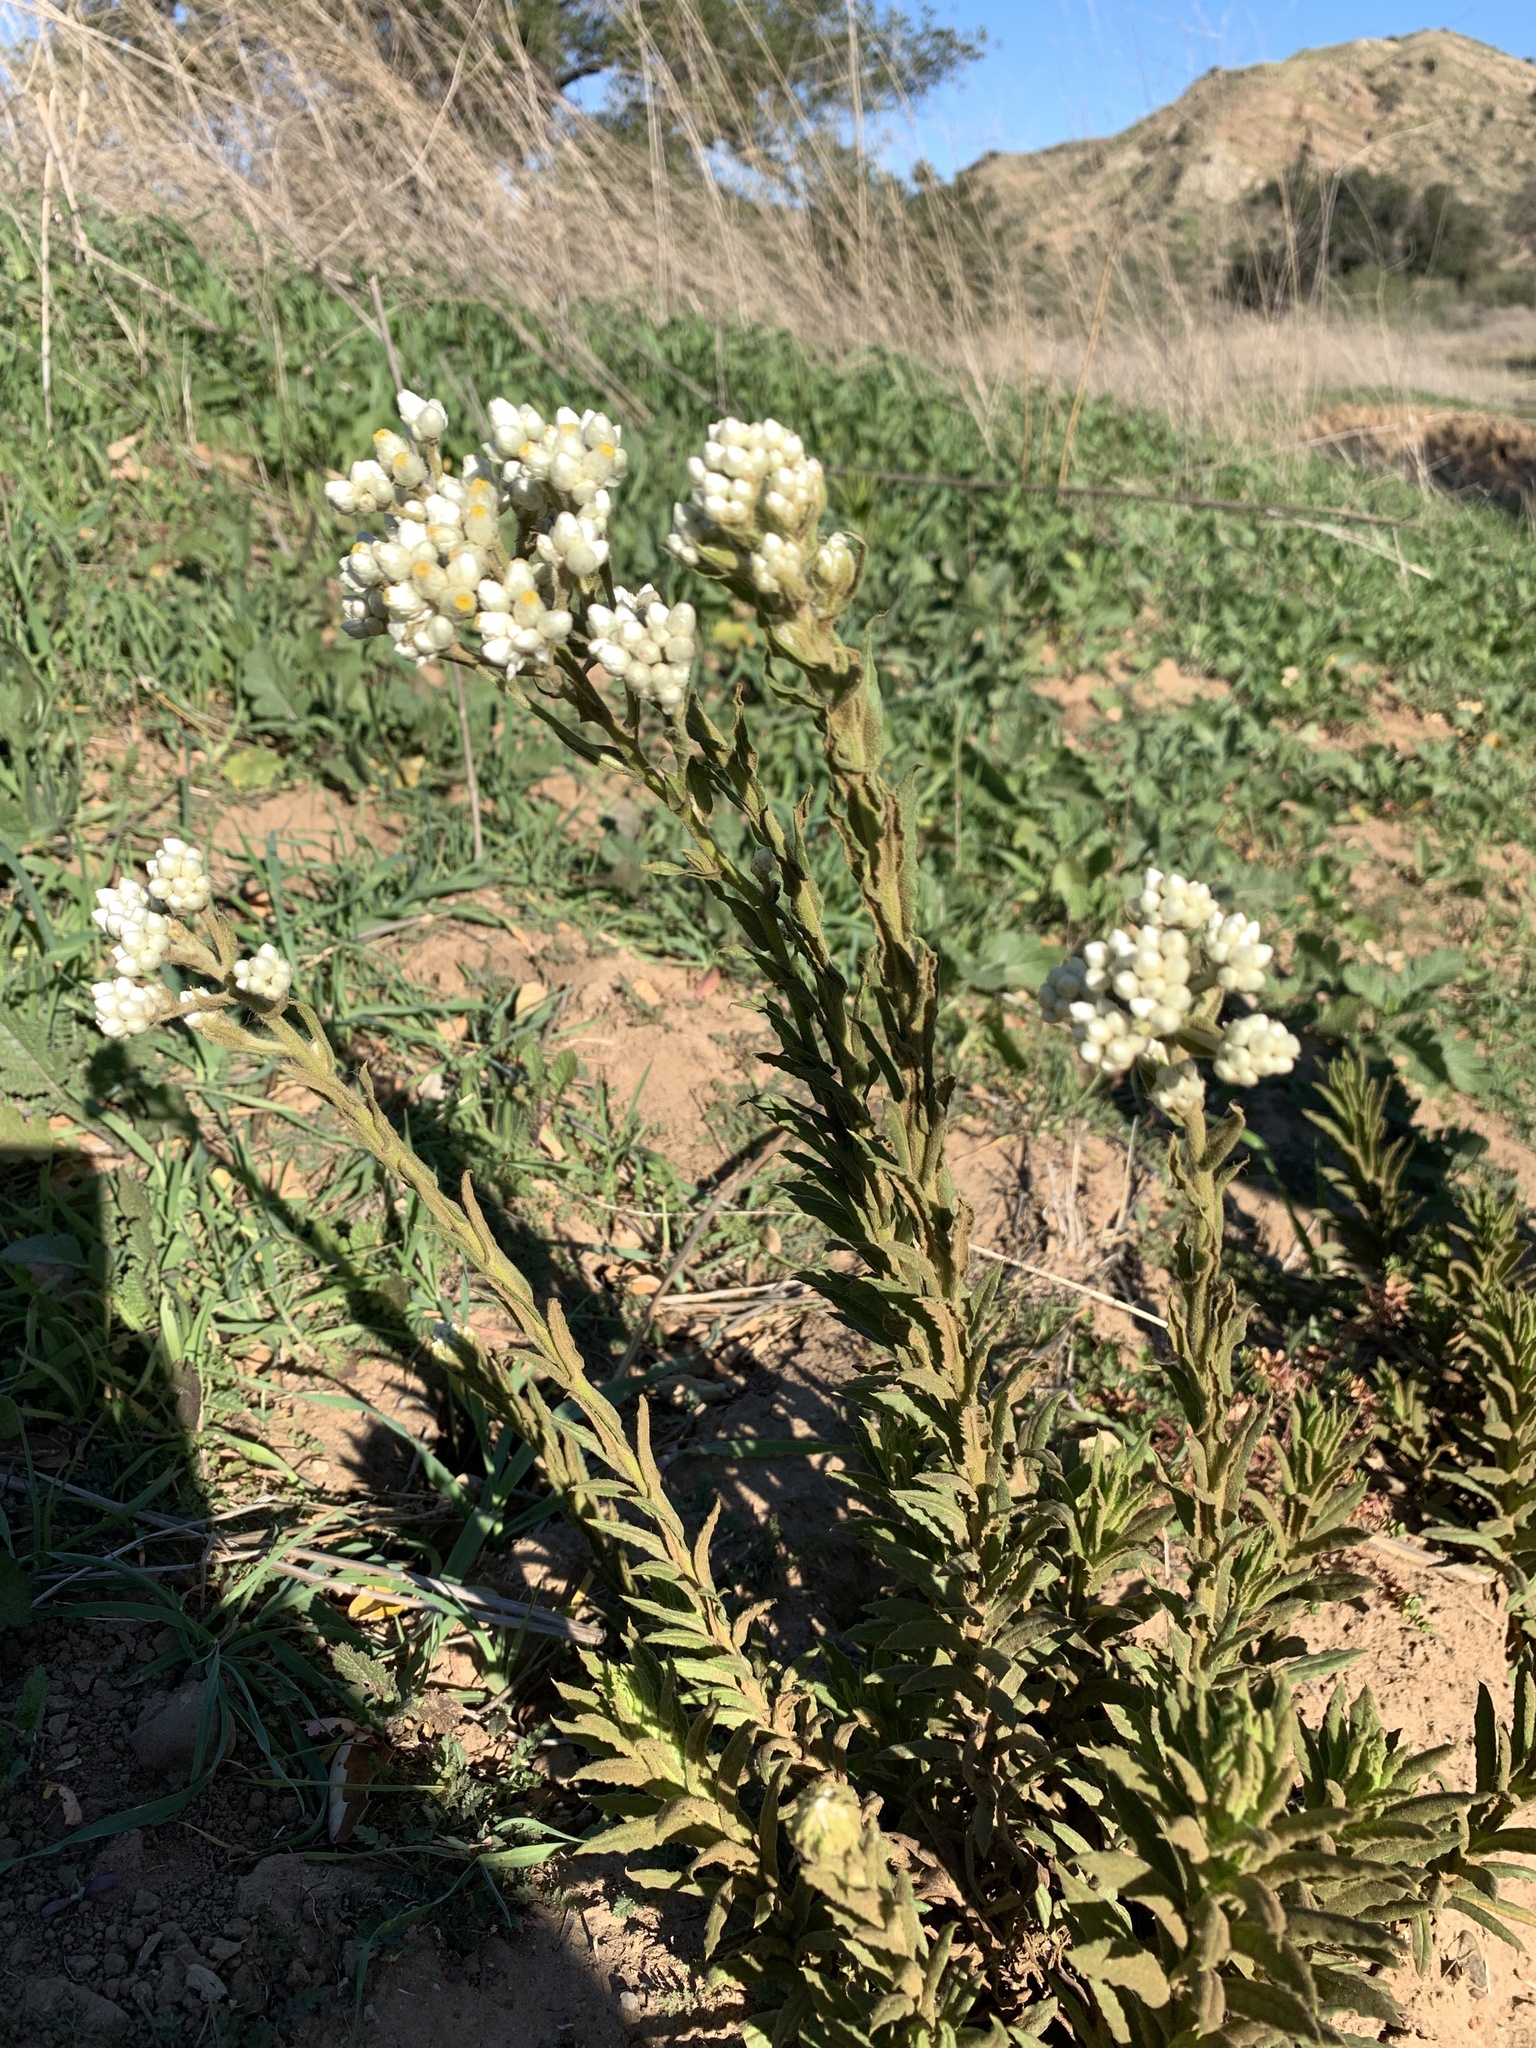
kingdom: Plantae
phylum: Tracheophyta
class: Magnoliopsida
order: Asterales
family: Asteraceae
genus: Pseudognaphalium
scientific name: Pseudognaphalium californicum
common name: California rabbit-tobacco
